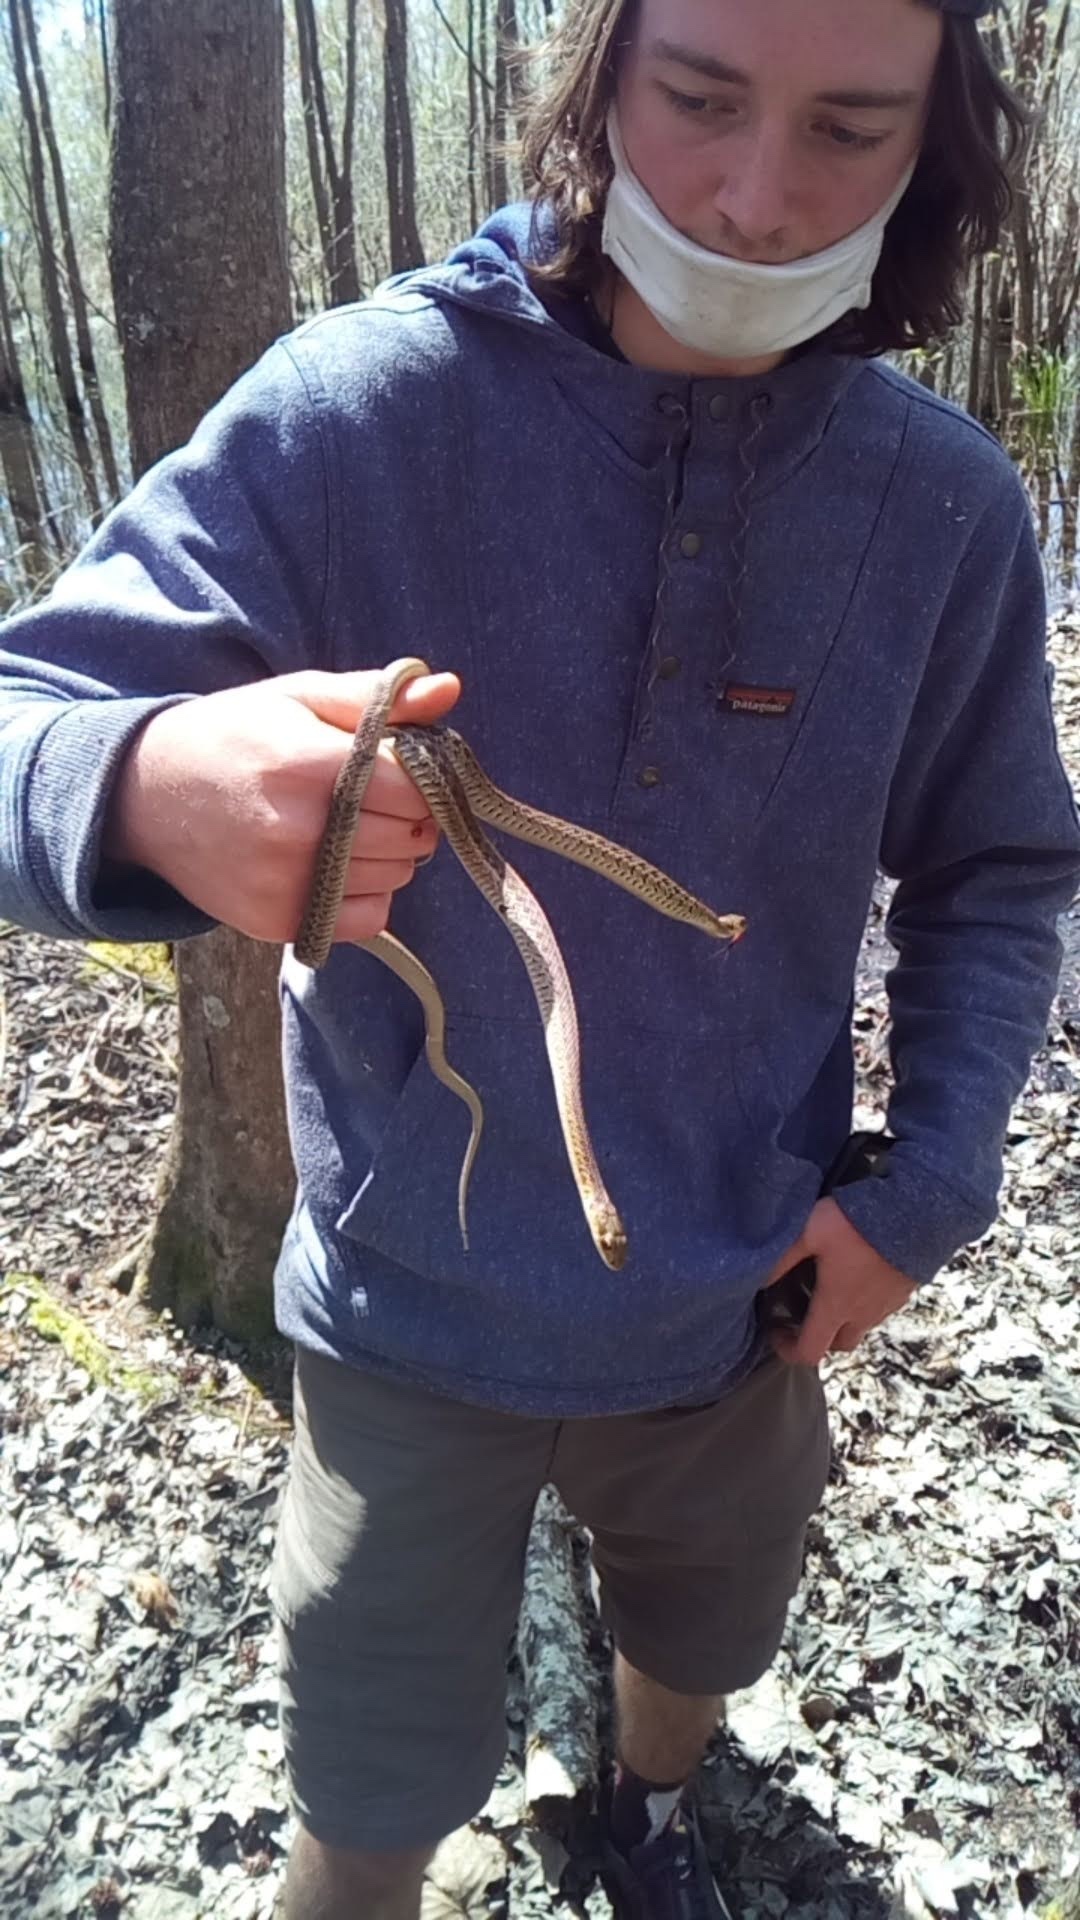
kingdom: Animalia
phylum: Chordata
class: Squamata
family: Colubridae
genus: Thamnophis
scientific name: Thamnophis sirtalis
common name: Common garter snake
